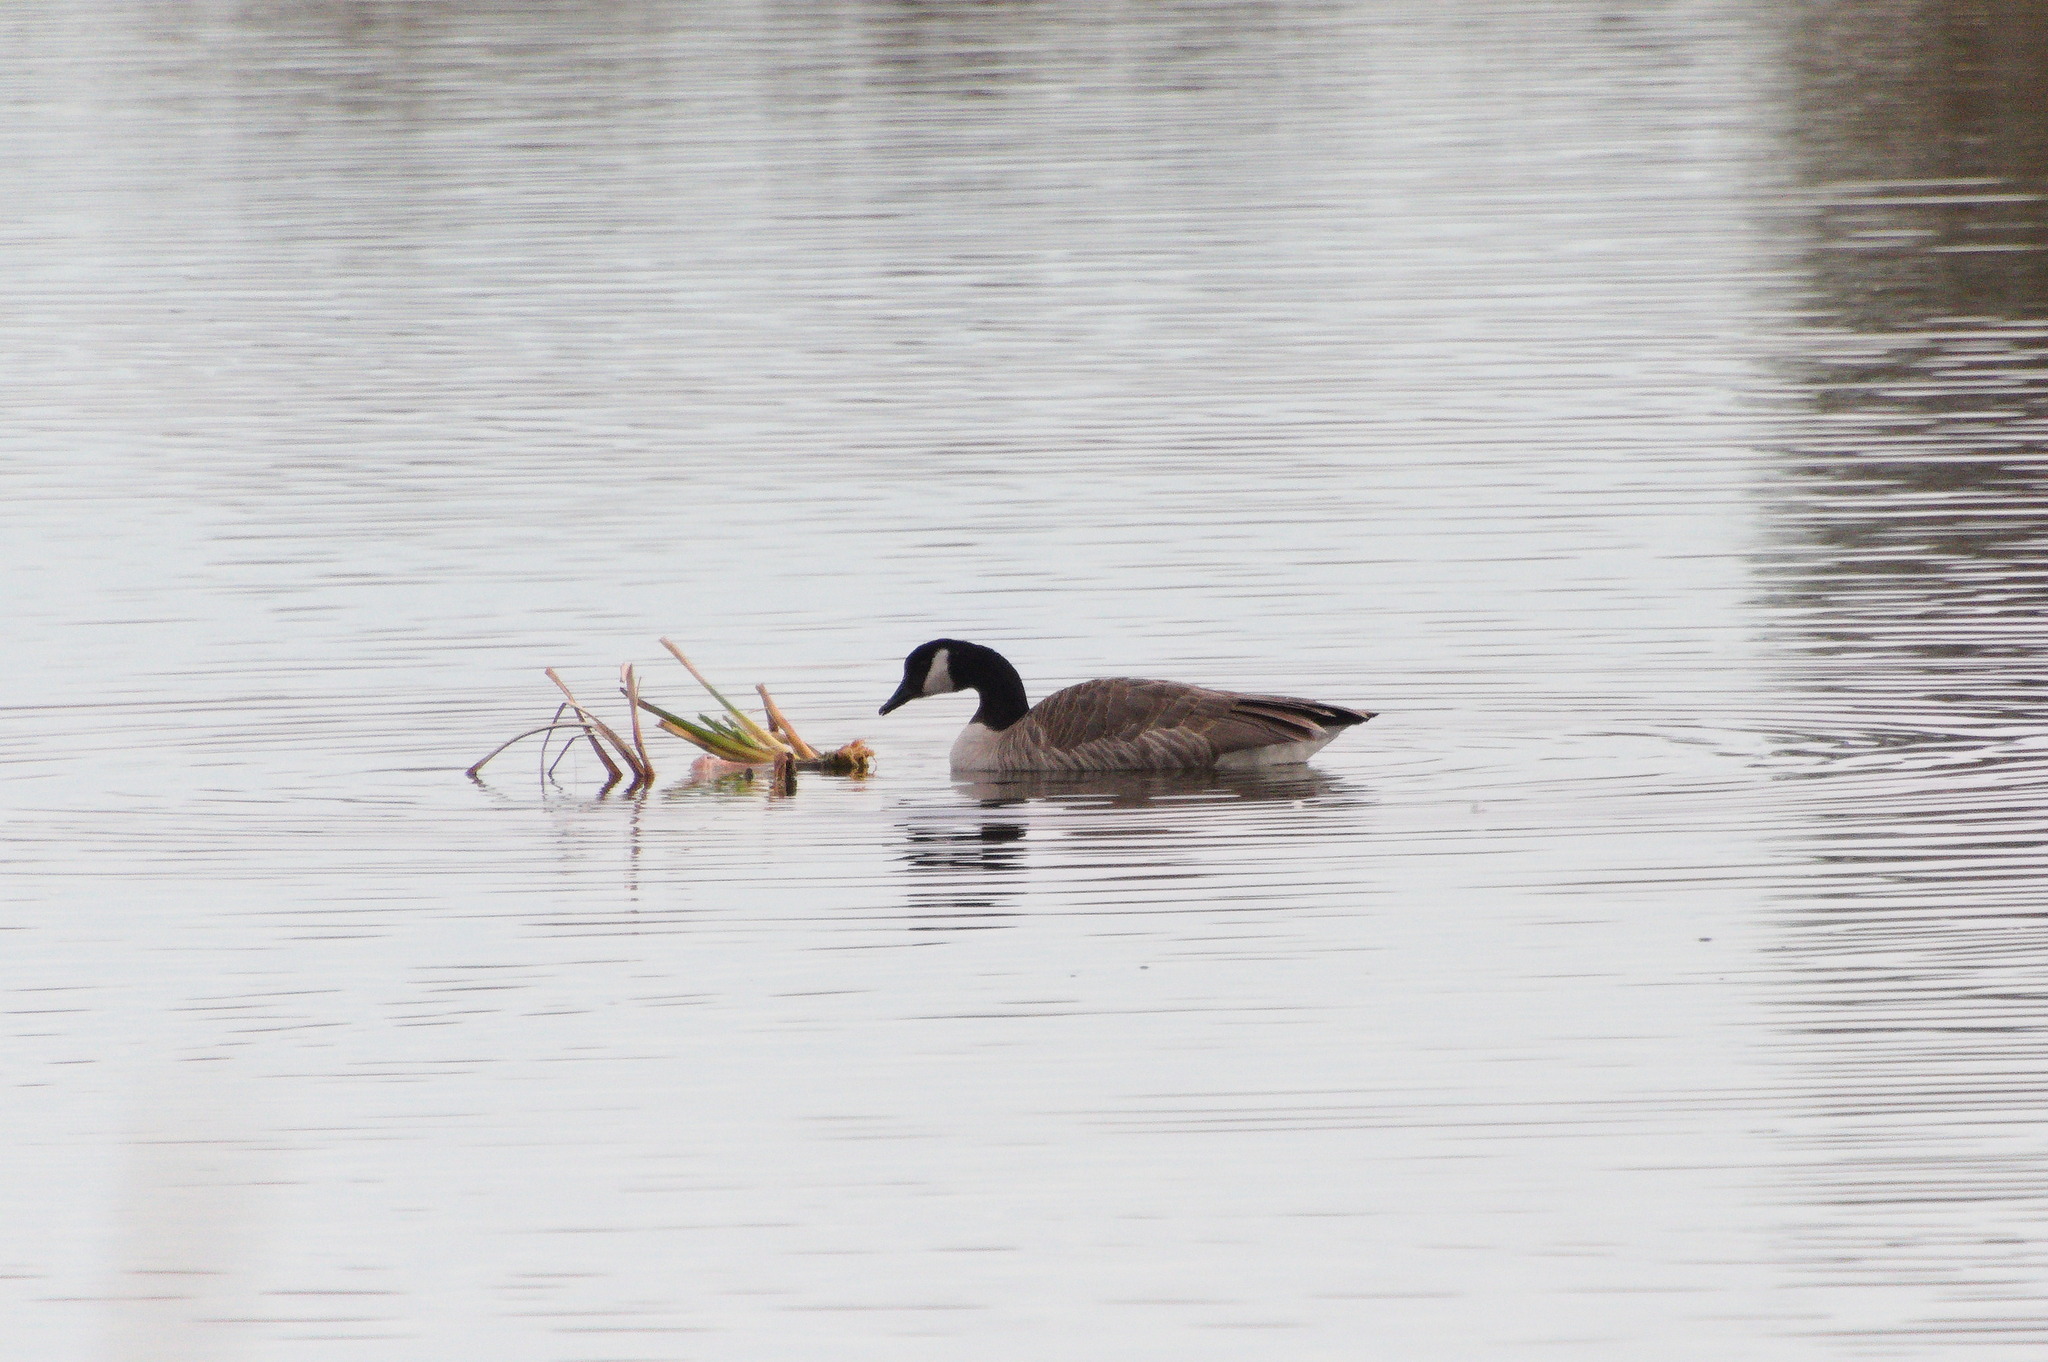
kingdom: Animalia
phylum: Chordata
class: Aves
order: Anseriformes
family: Anatidae
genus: Branta
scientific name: Branta canadensis
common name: Canada goose
